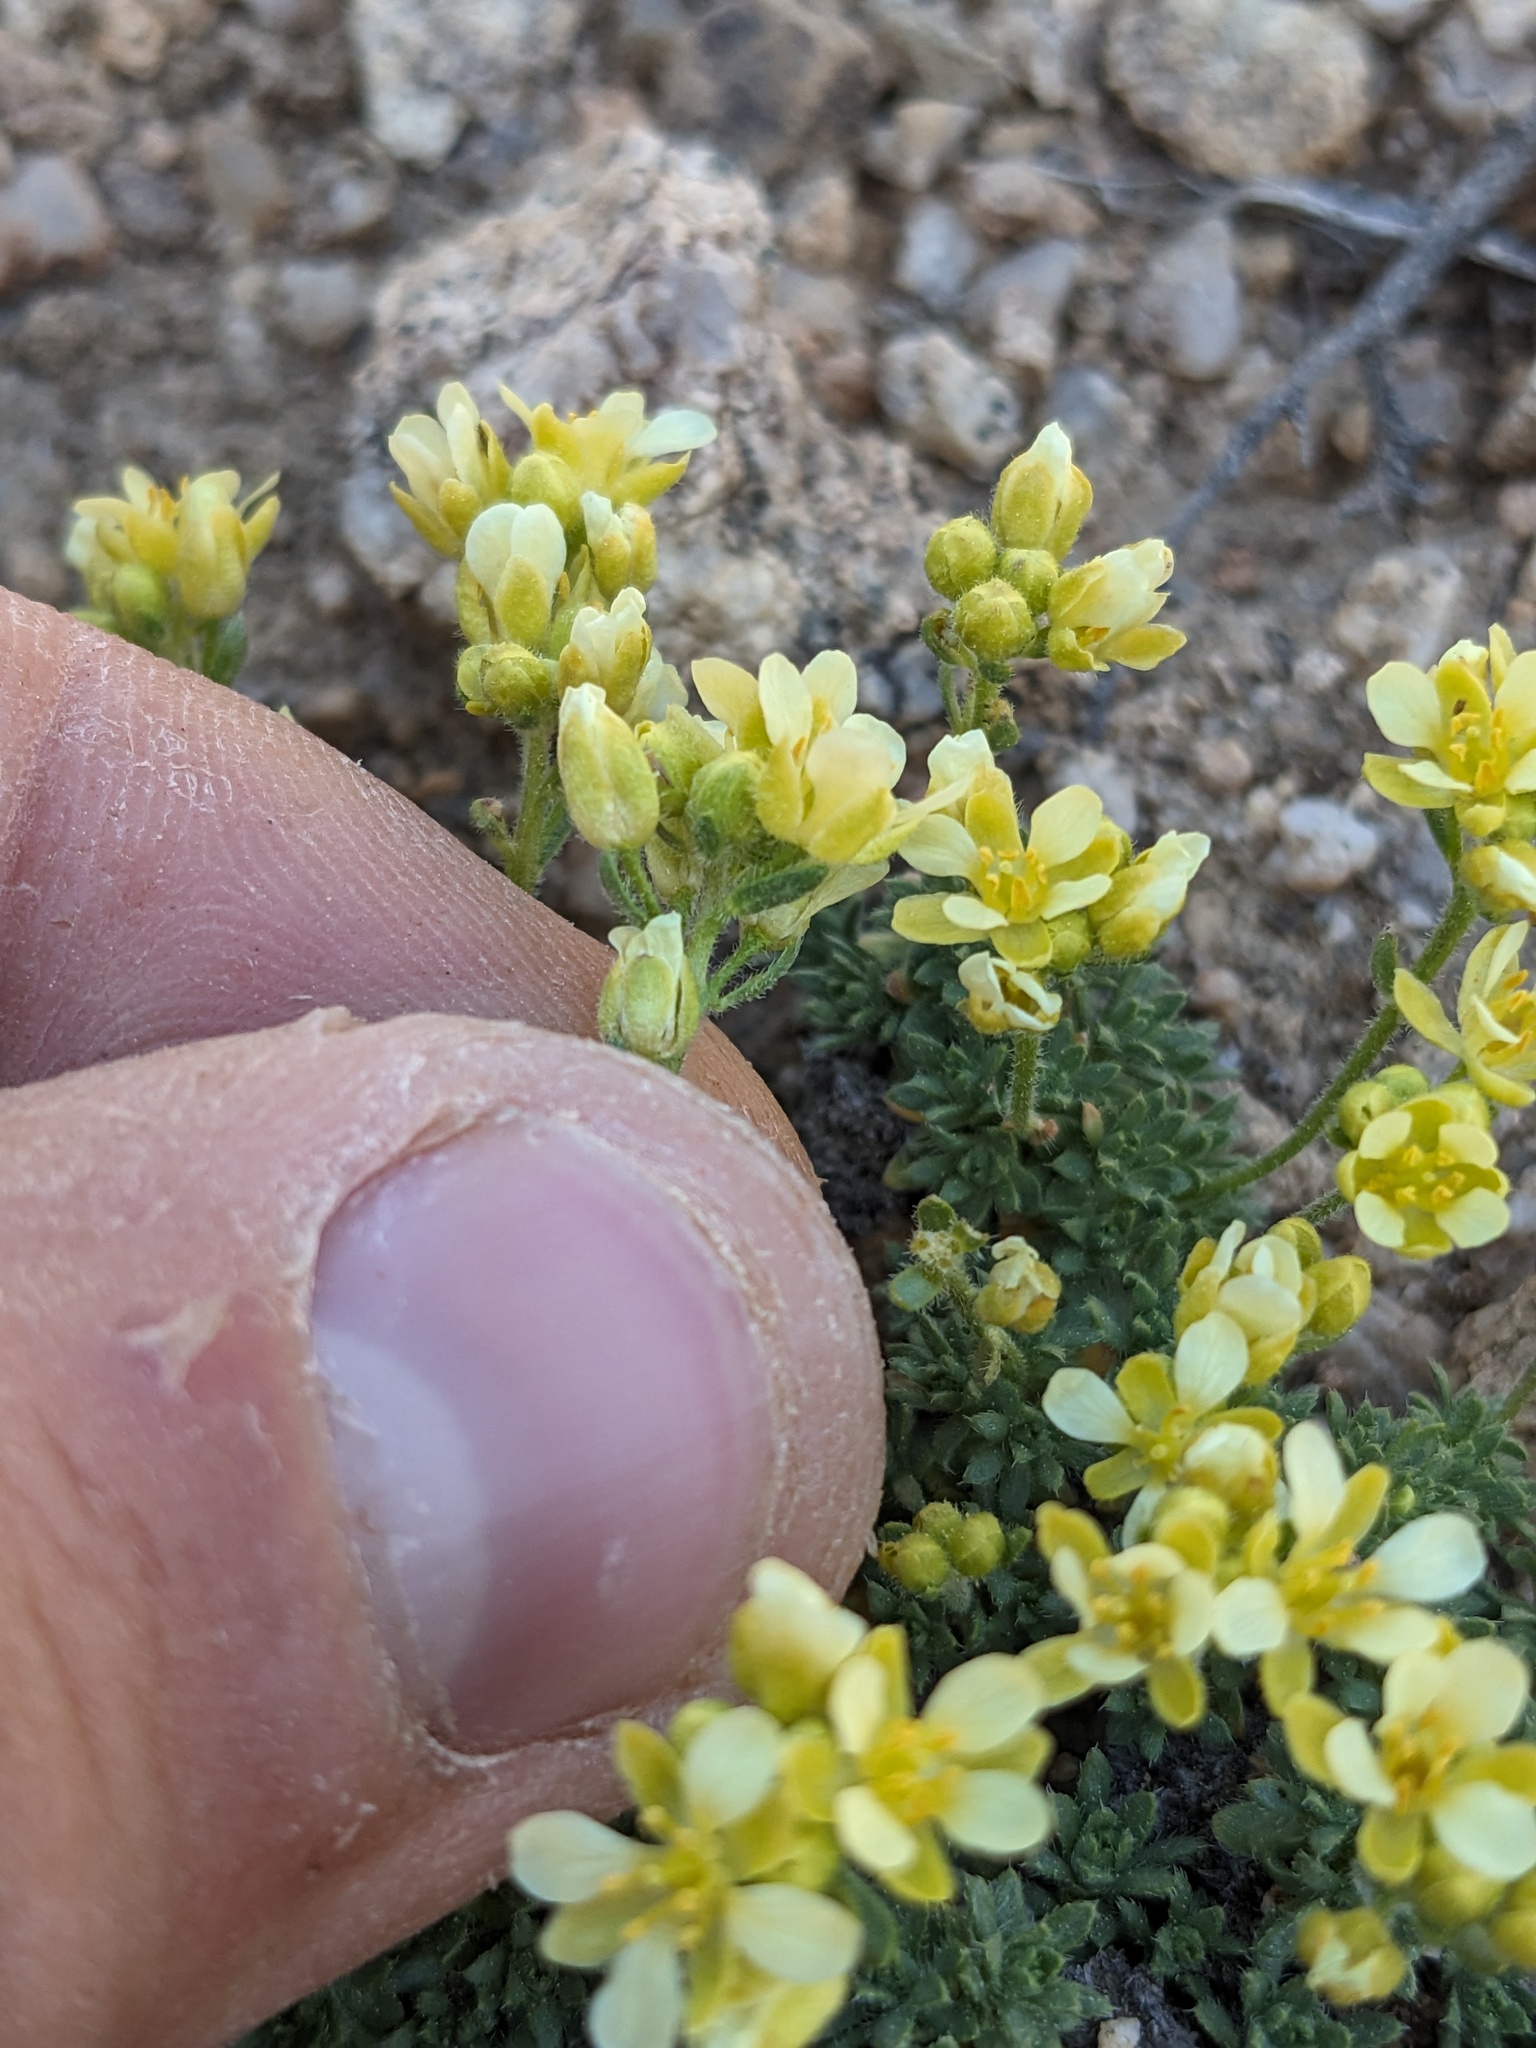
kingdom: Plantae
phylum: Tracheophyta
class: Magnoliopsida
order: Brassicales
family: Brassicaceae
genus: Cusickiella
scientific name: Cusickiella quadricostata
